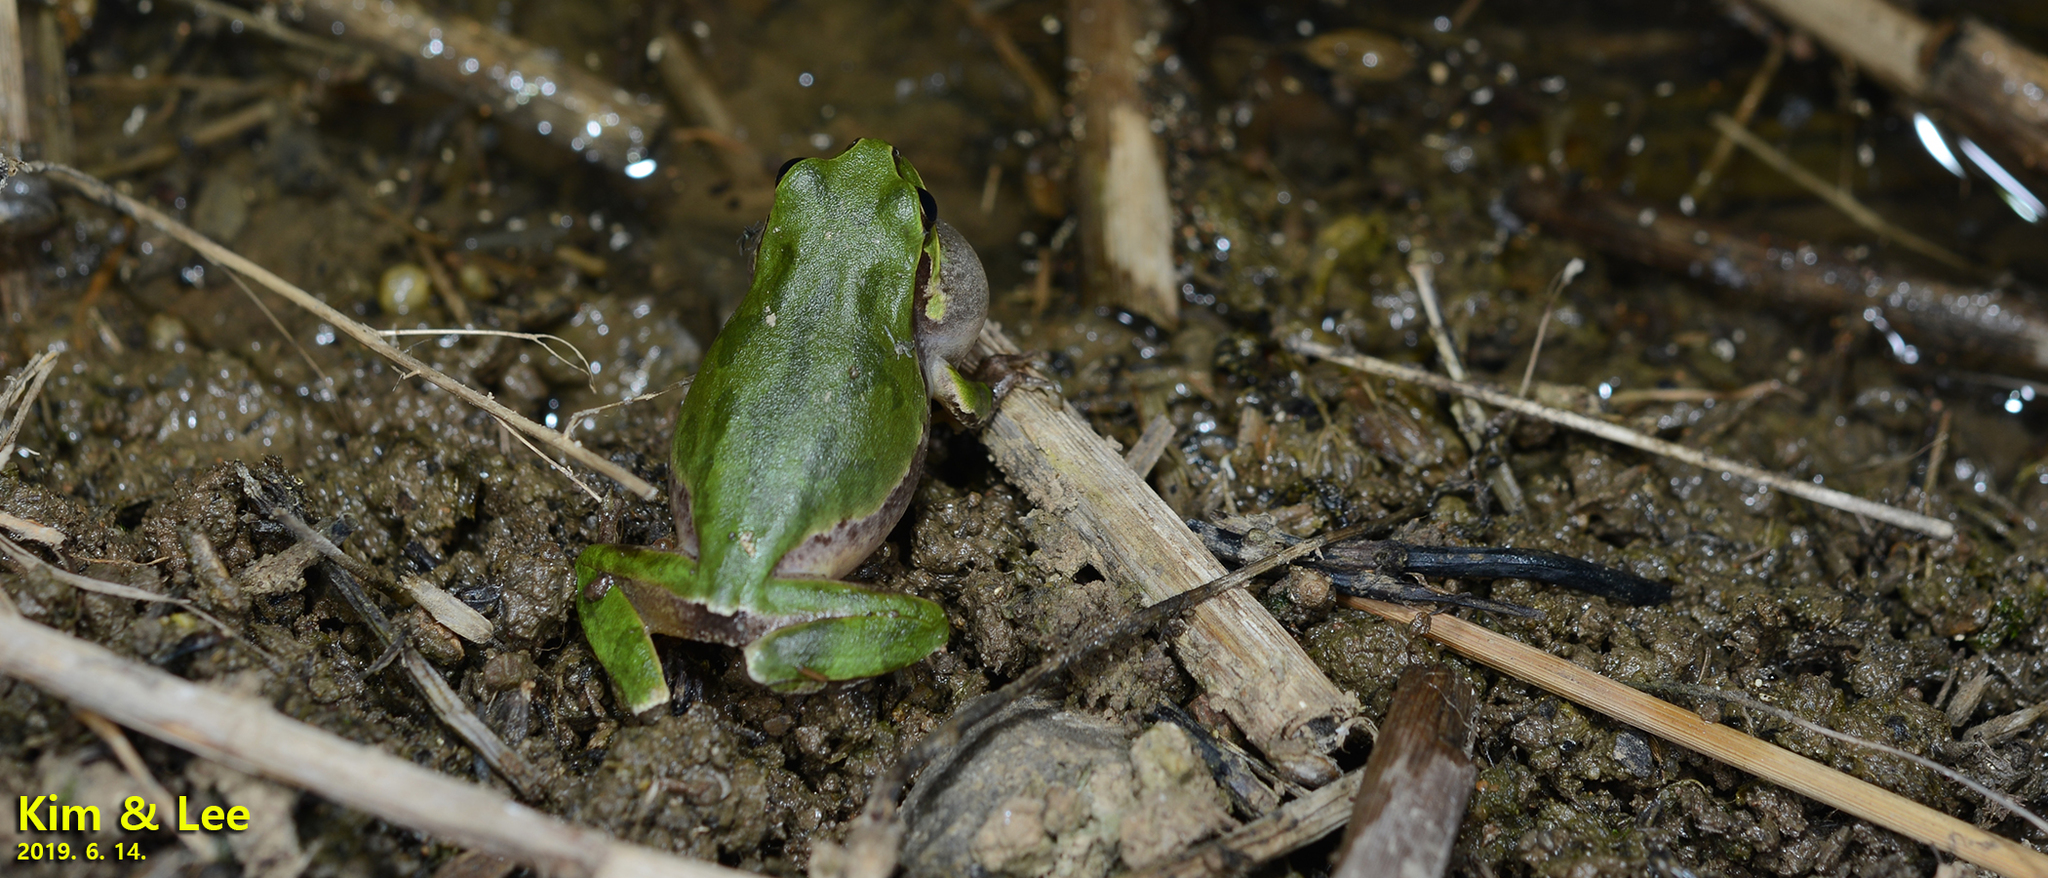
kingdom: Animalia
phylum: Chordata
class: Amphibia
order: Anura
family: Hylidae
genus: Dryophytes
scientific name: Dryophytes japonicus
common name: Japanese treefrog
